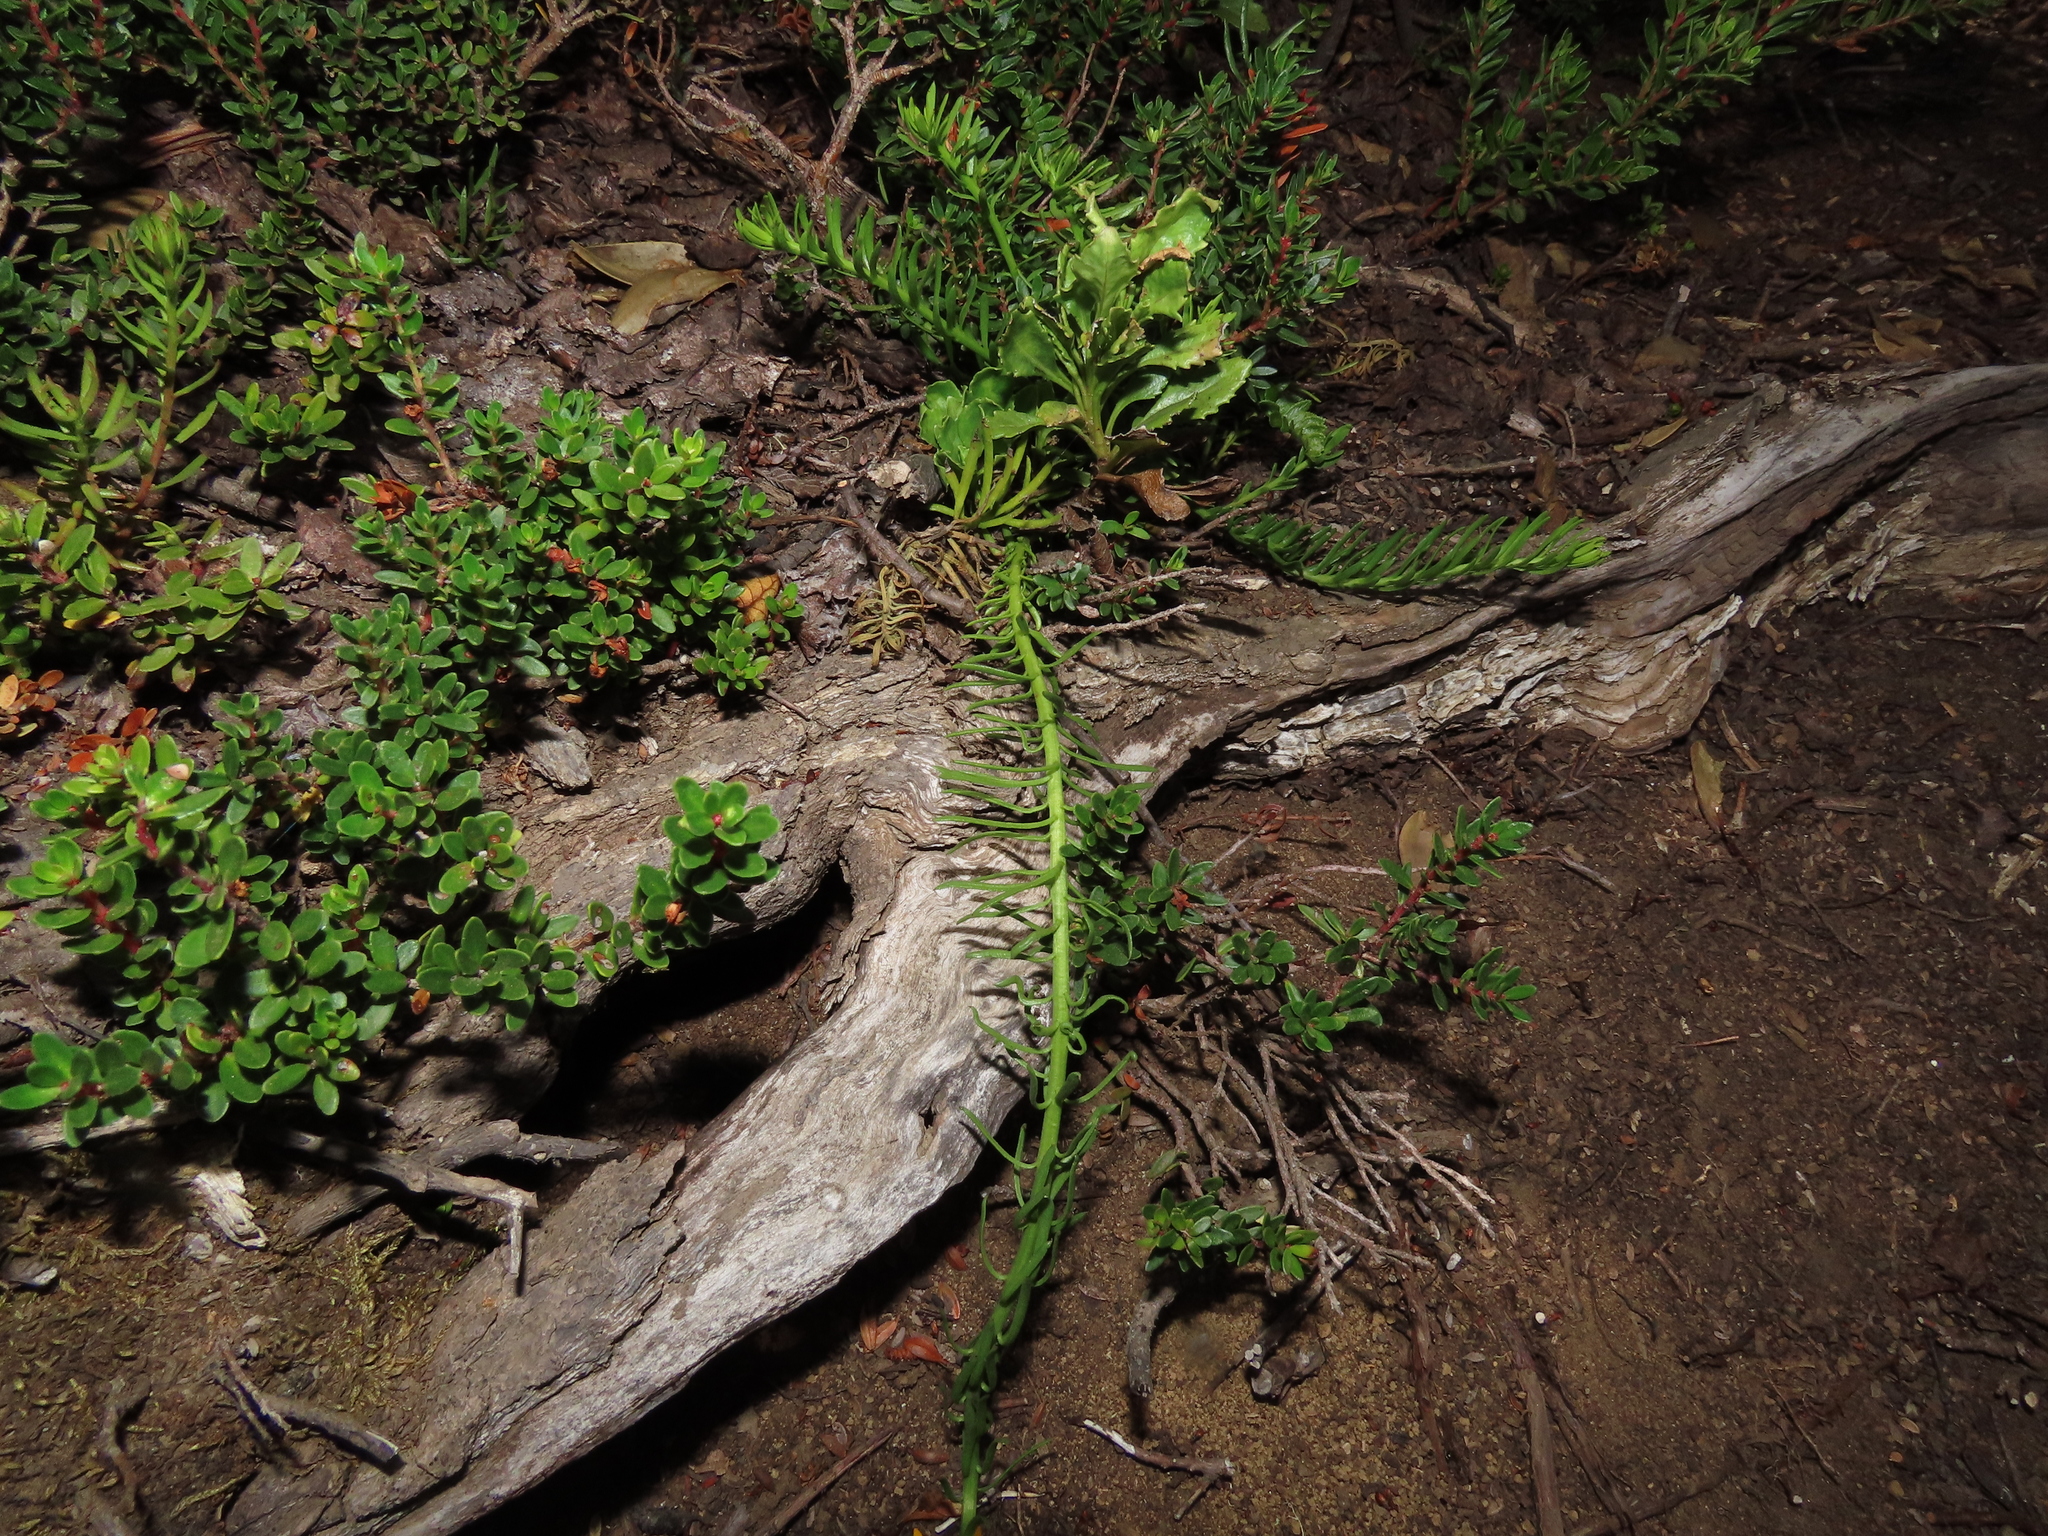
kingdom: Plantae
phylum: Tracheophyta
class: Magnoliopsida
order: Santalales
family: Schoepfiaceae
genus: Quinchamalium
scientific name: Quinchamalium chilense
